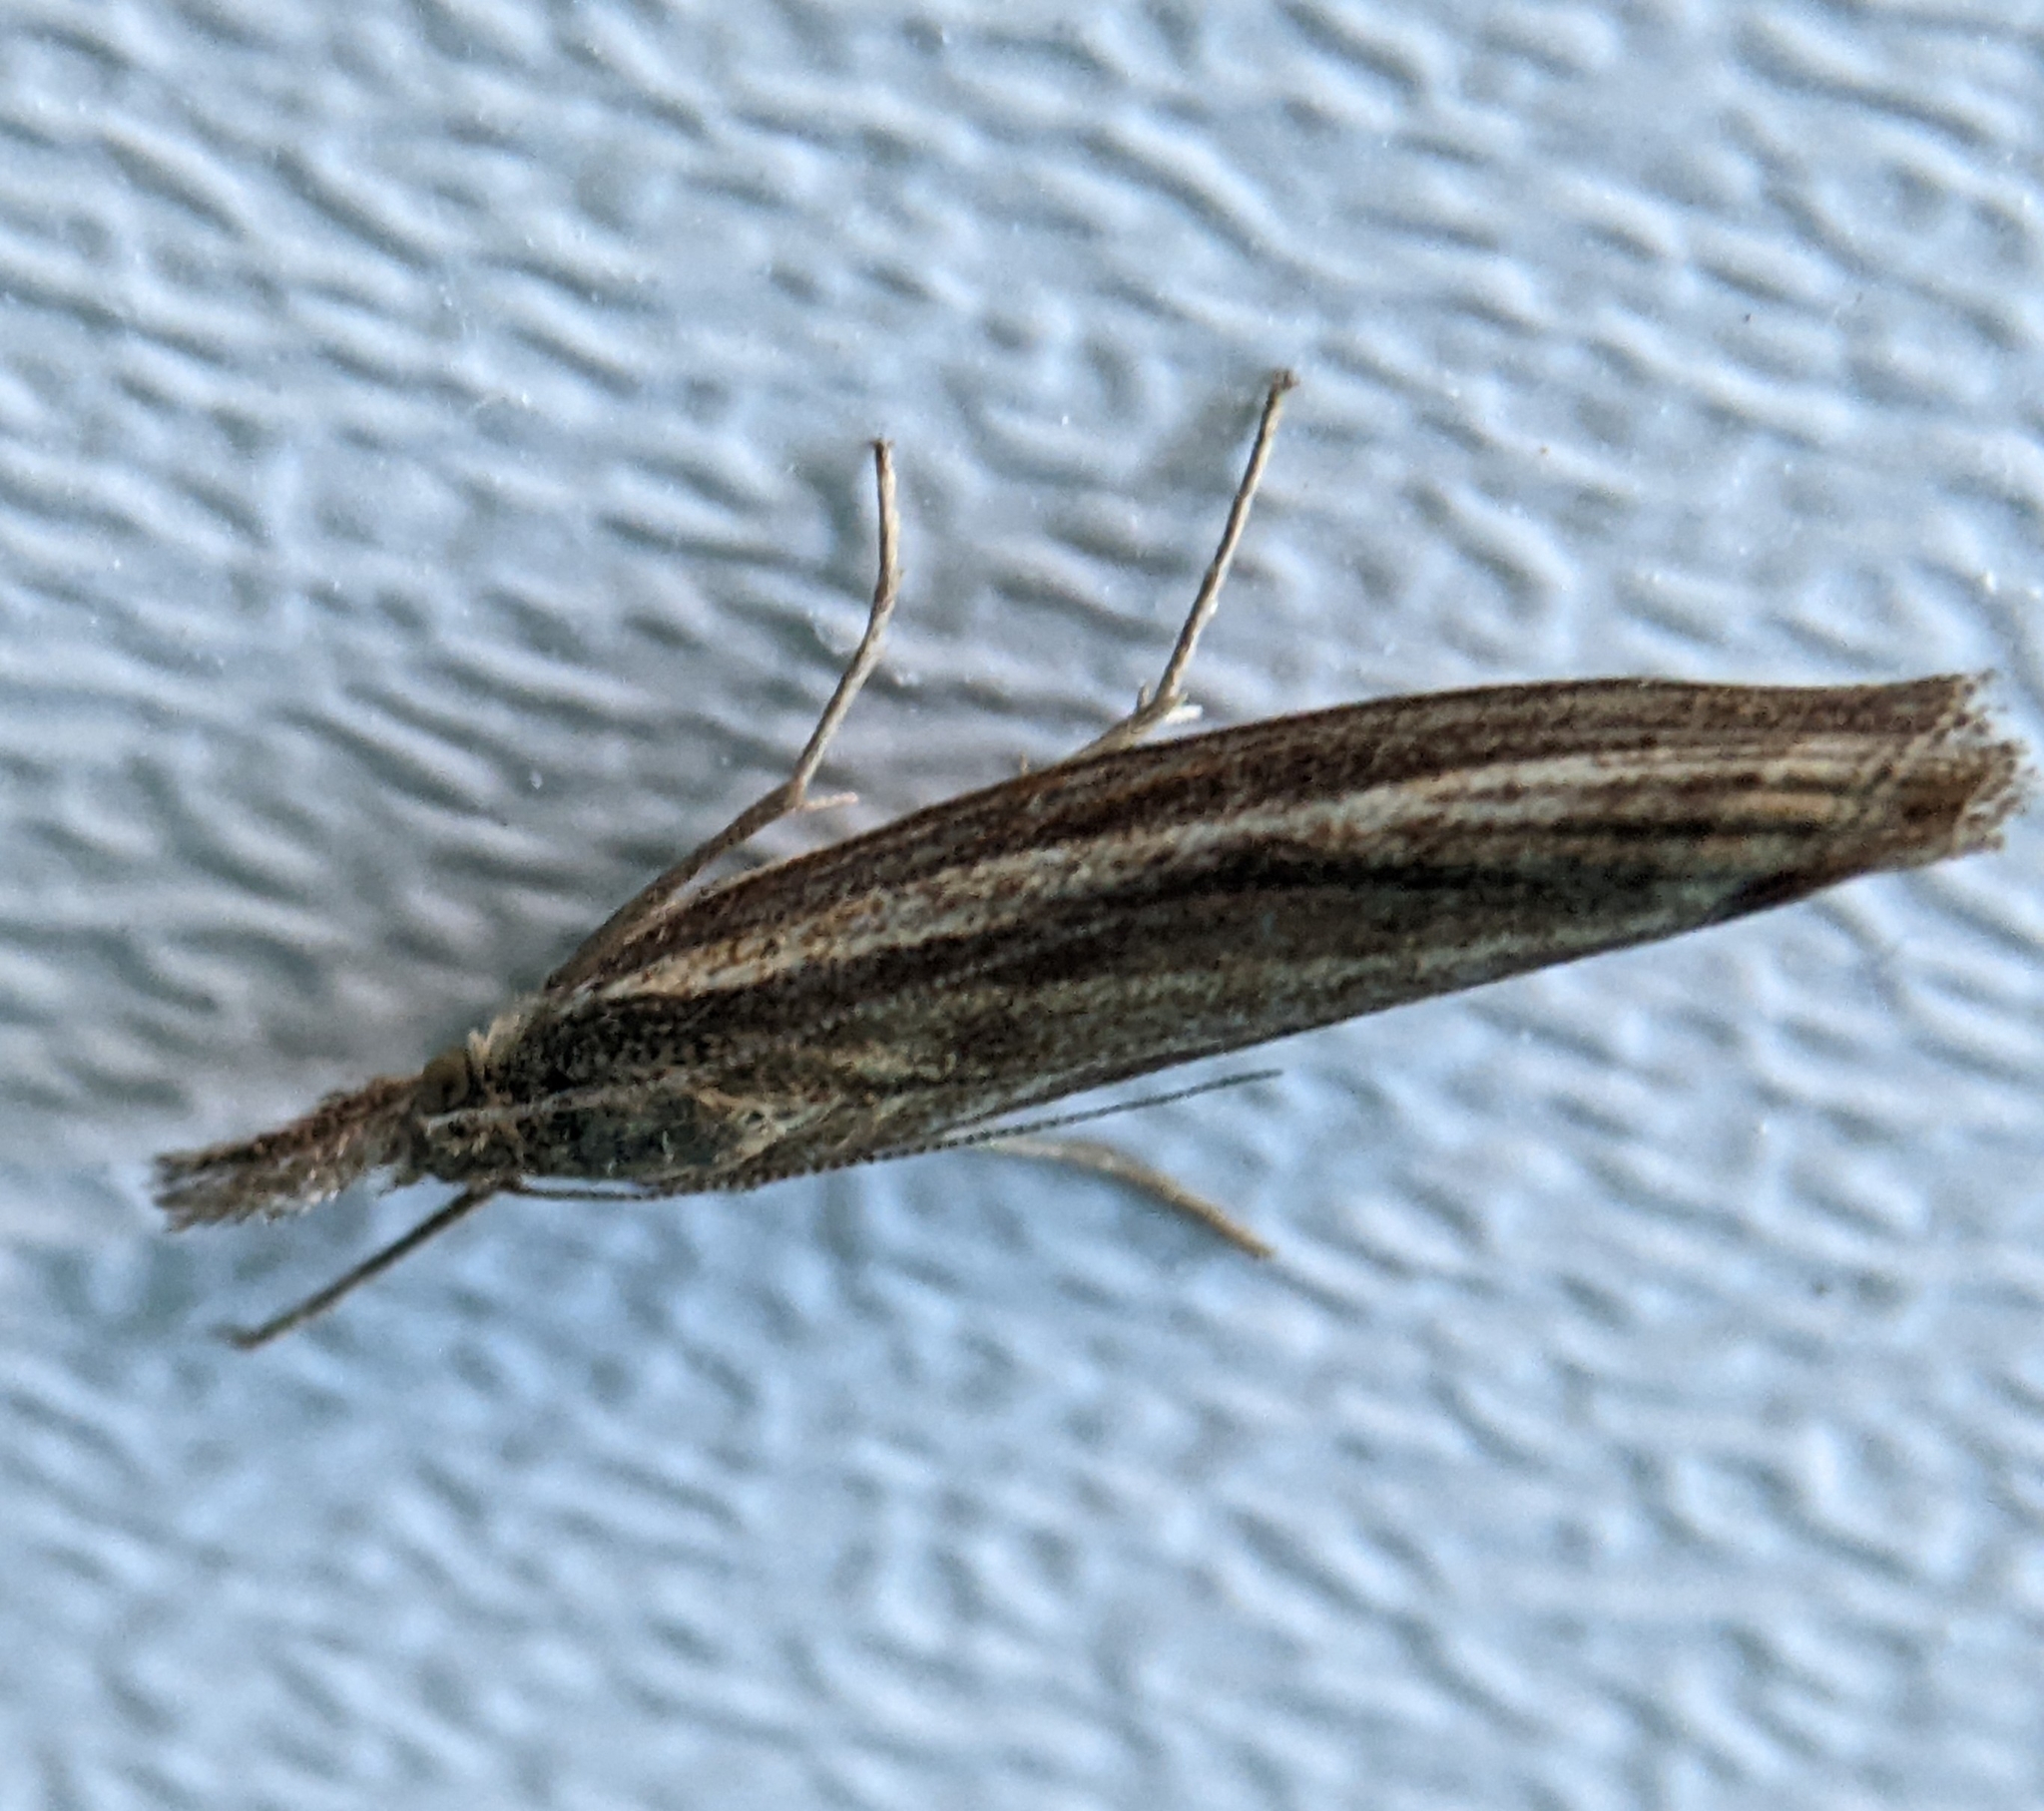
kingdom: Animalia
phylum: Arthropoda
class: Insecta
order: Lepidoptera
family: Crambidae
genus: Agriphila
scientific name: Agriphila tristellus
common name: Common grass-veneer
